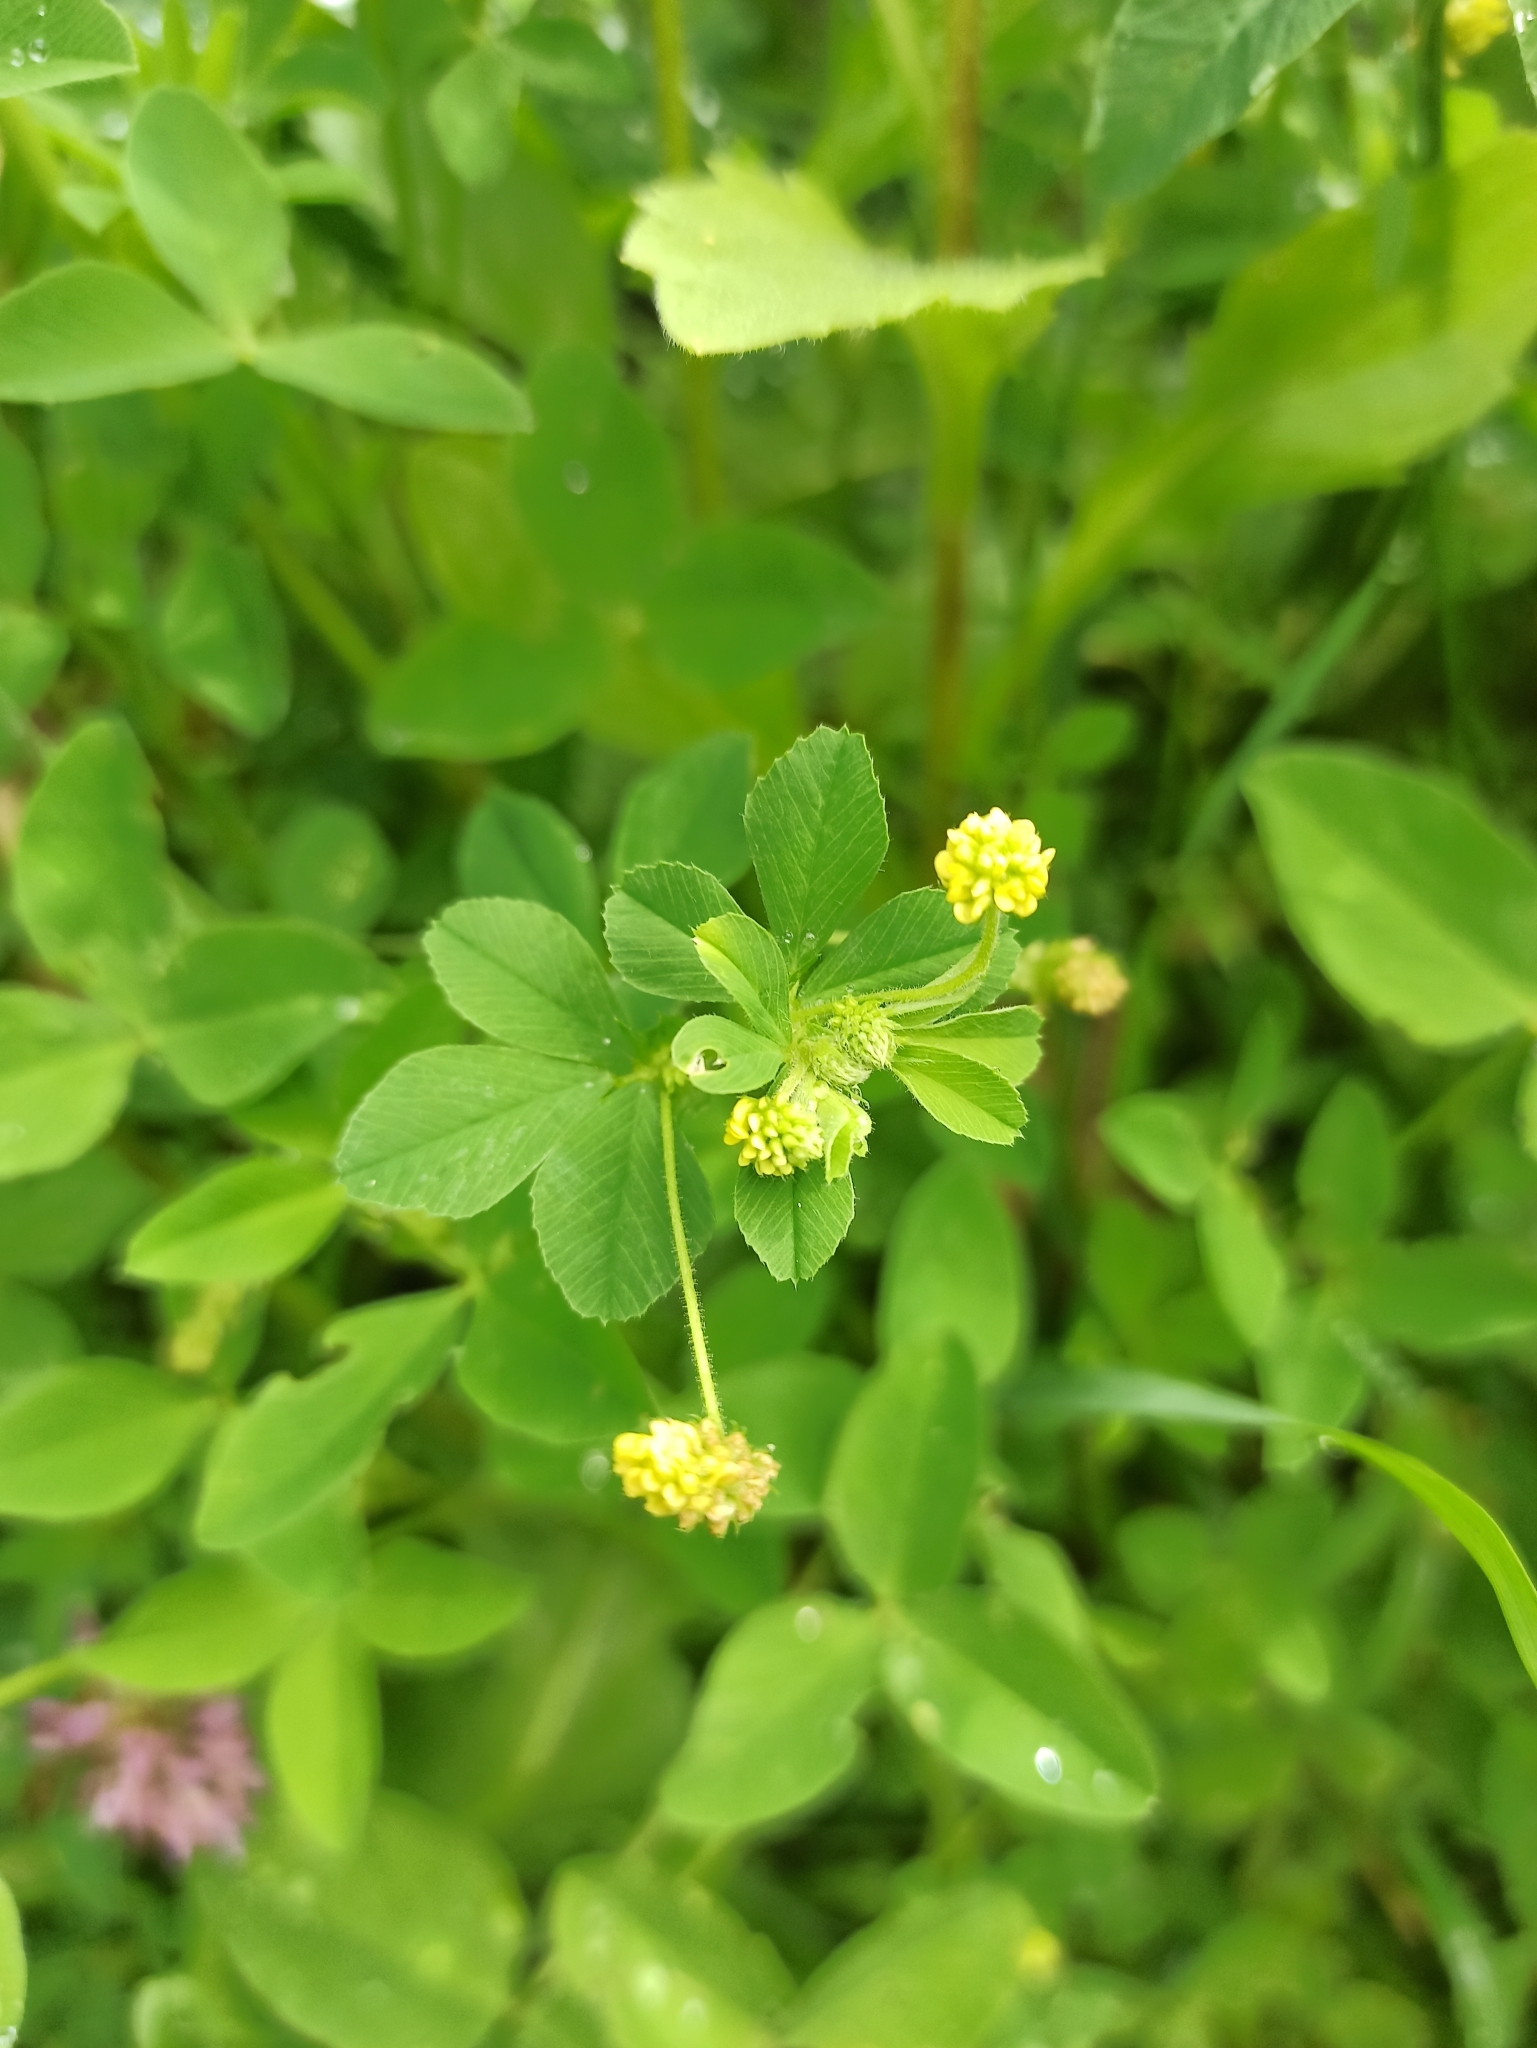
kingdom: Plantae
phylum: Tracheophyta
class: Magnoliopsida
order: Fabales
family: Fabaceae
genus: Medicago
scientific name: Medicago lupulina
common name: Black medick
